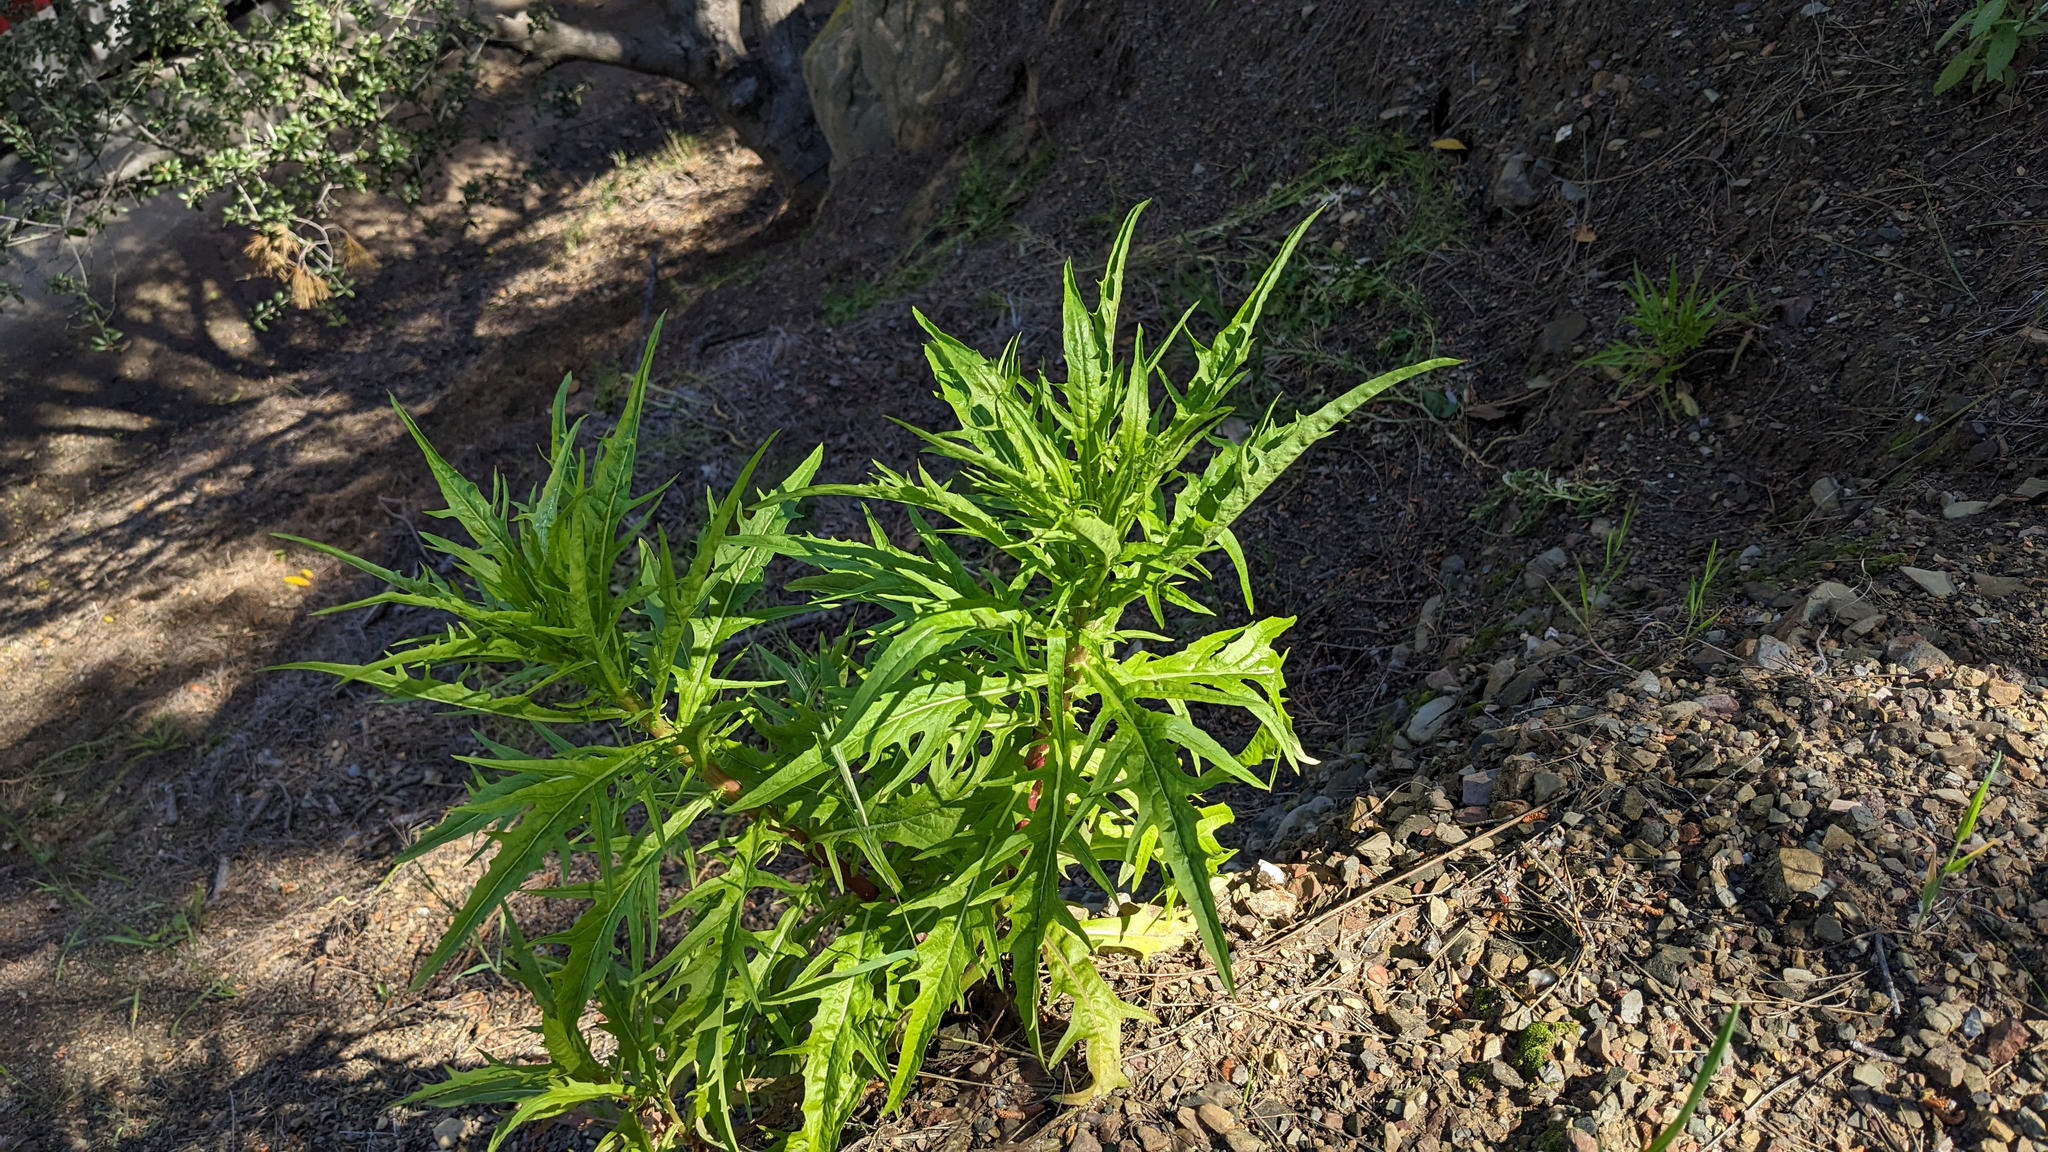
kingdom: Plantae
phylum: Tracheophyta
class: Magnoliopsida
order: Asterales
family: Asteraceae
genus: Malacothrix
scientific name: Malacothrix saxatilis
